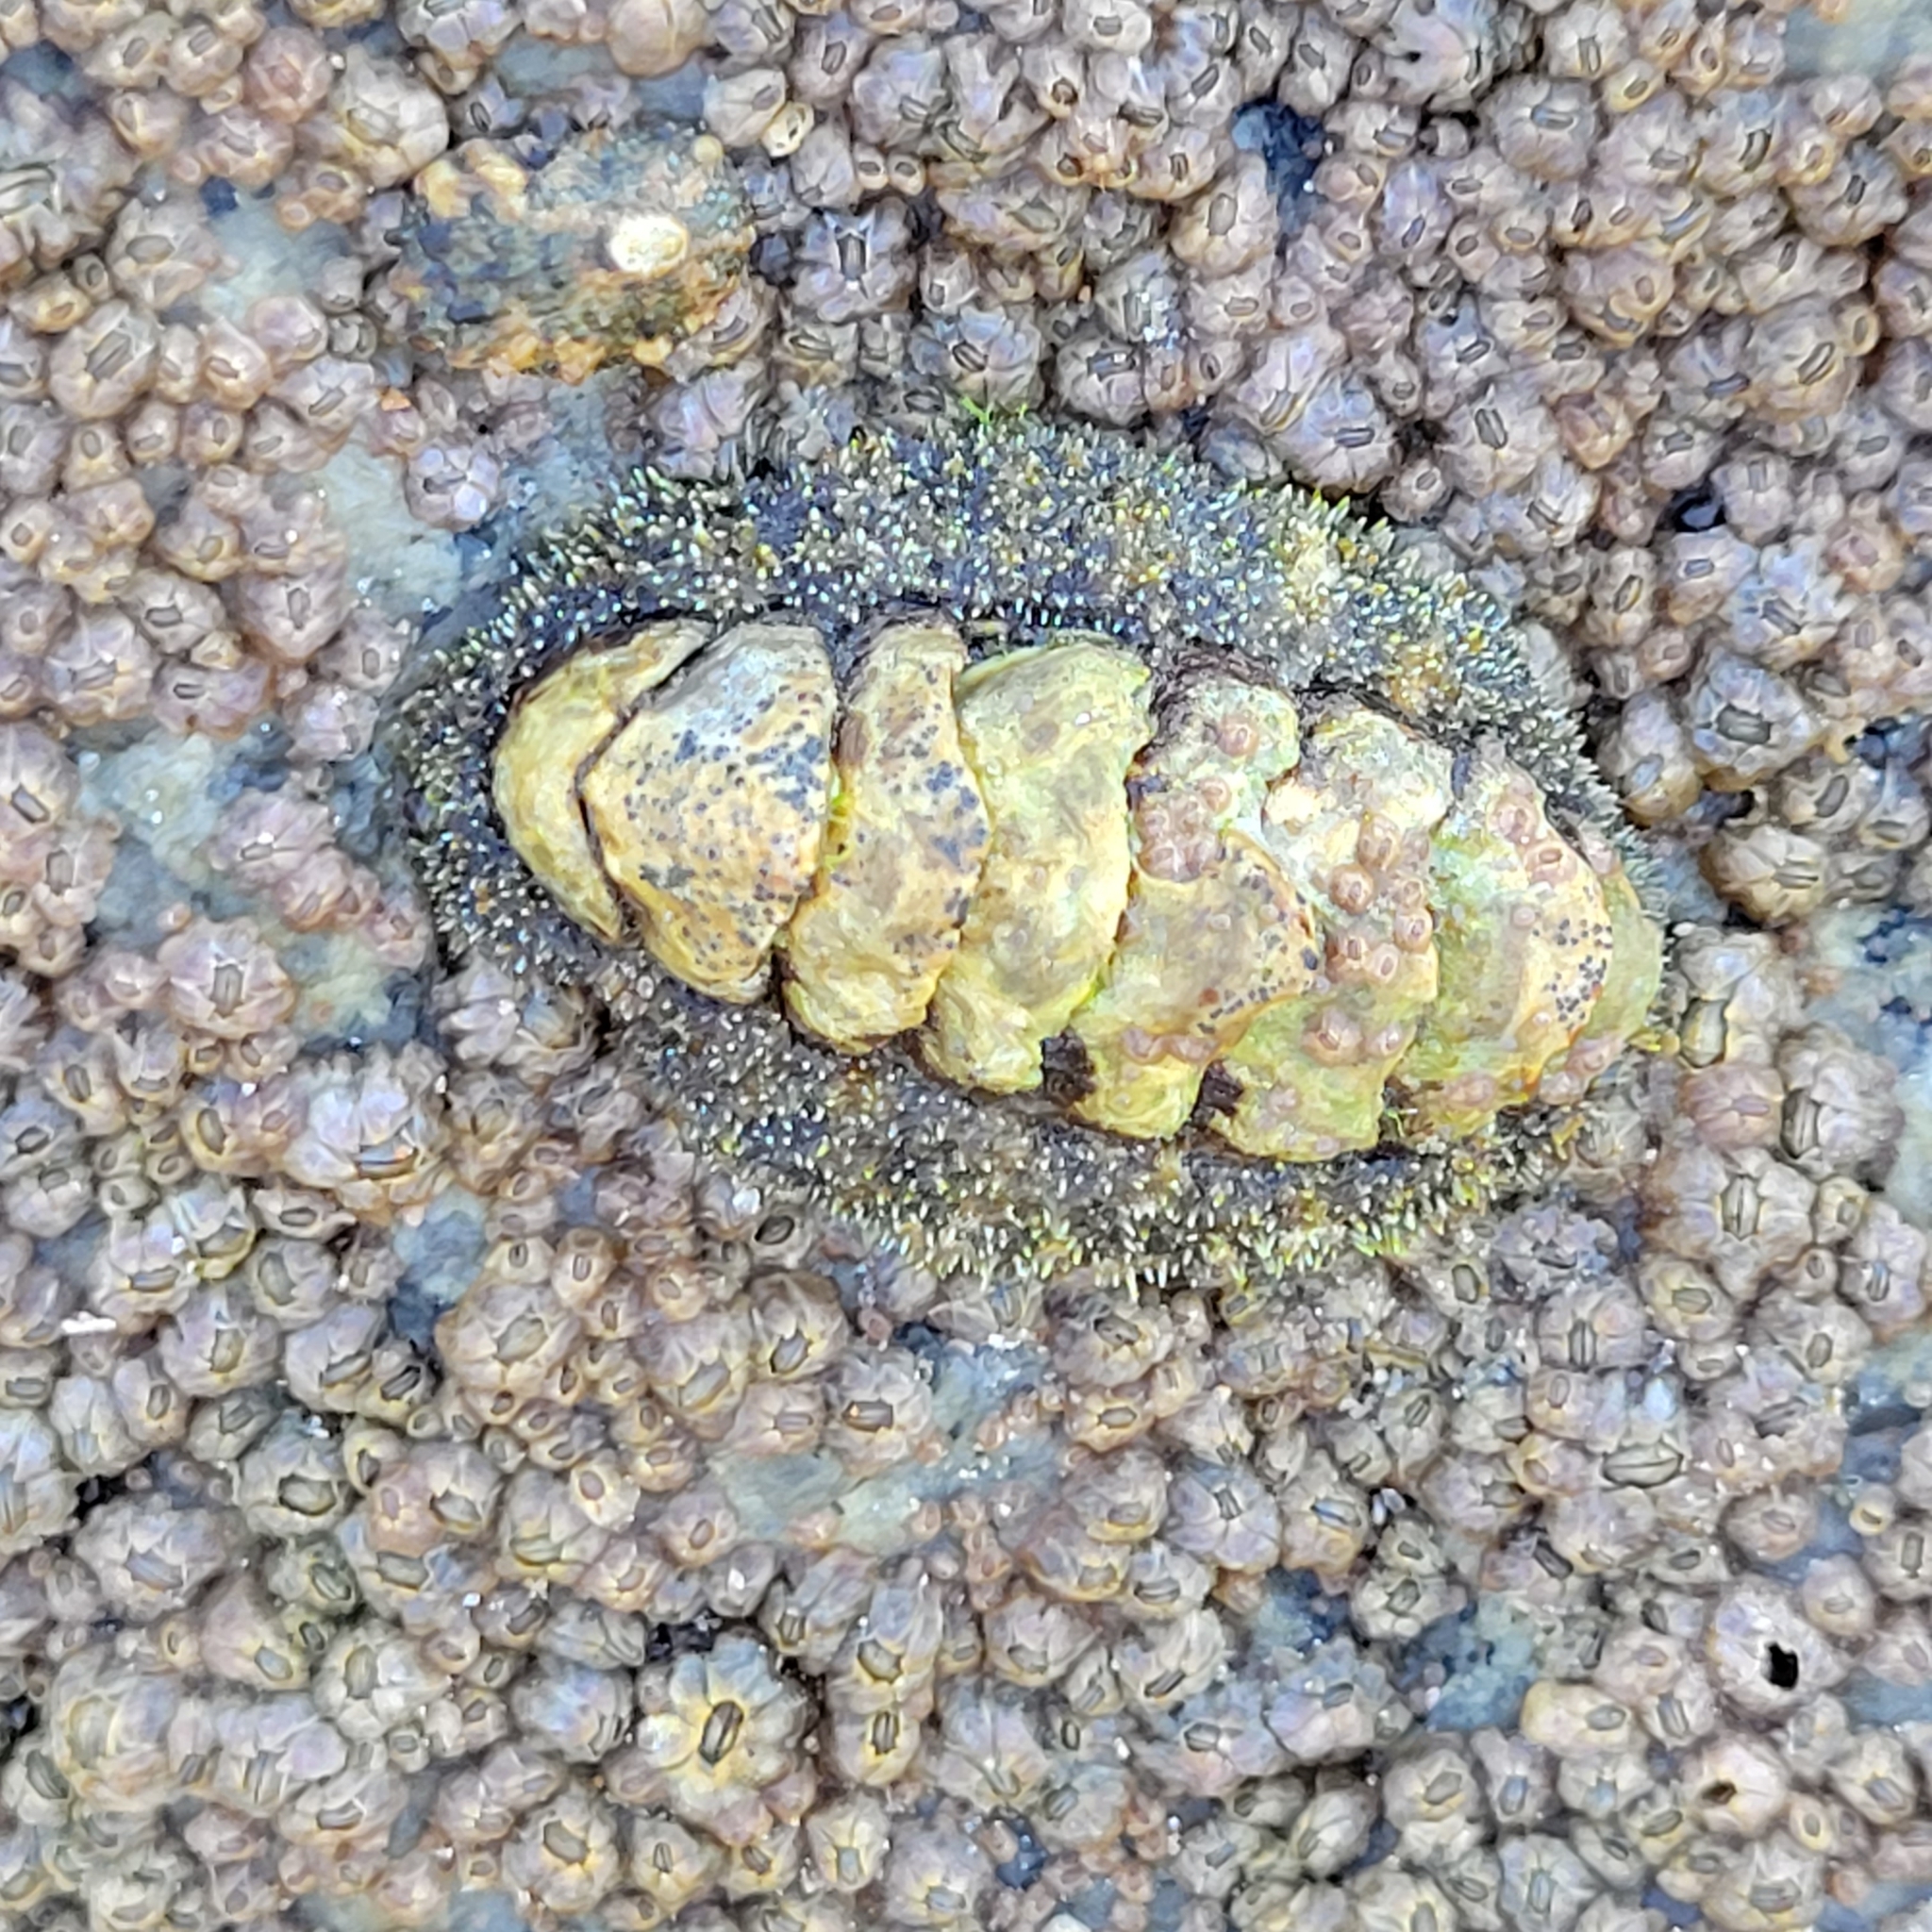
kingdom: Animalia
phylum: Mollusca
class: Polyplacophora
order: Chitonida
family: Tonicellidae
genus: Nuttallina
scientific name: Nuttallina californica
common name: California nuttall chiton
